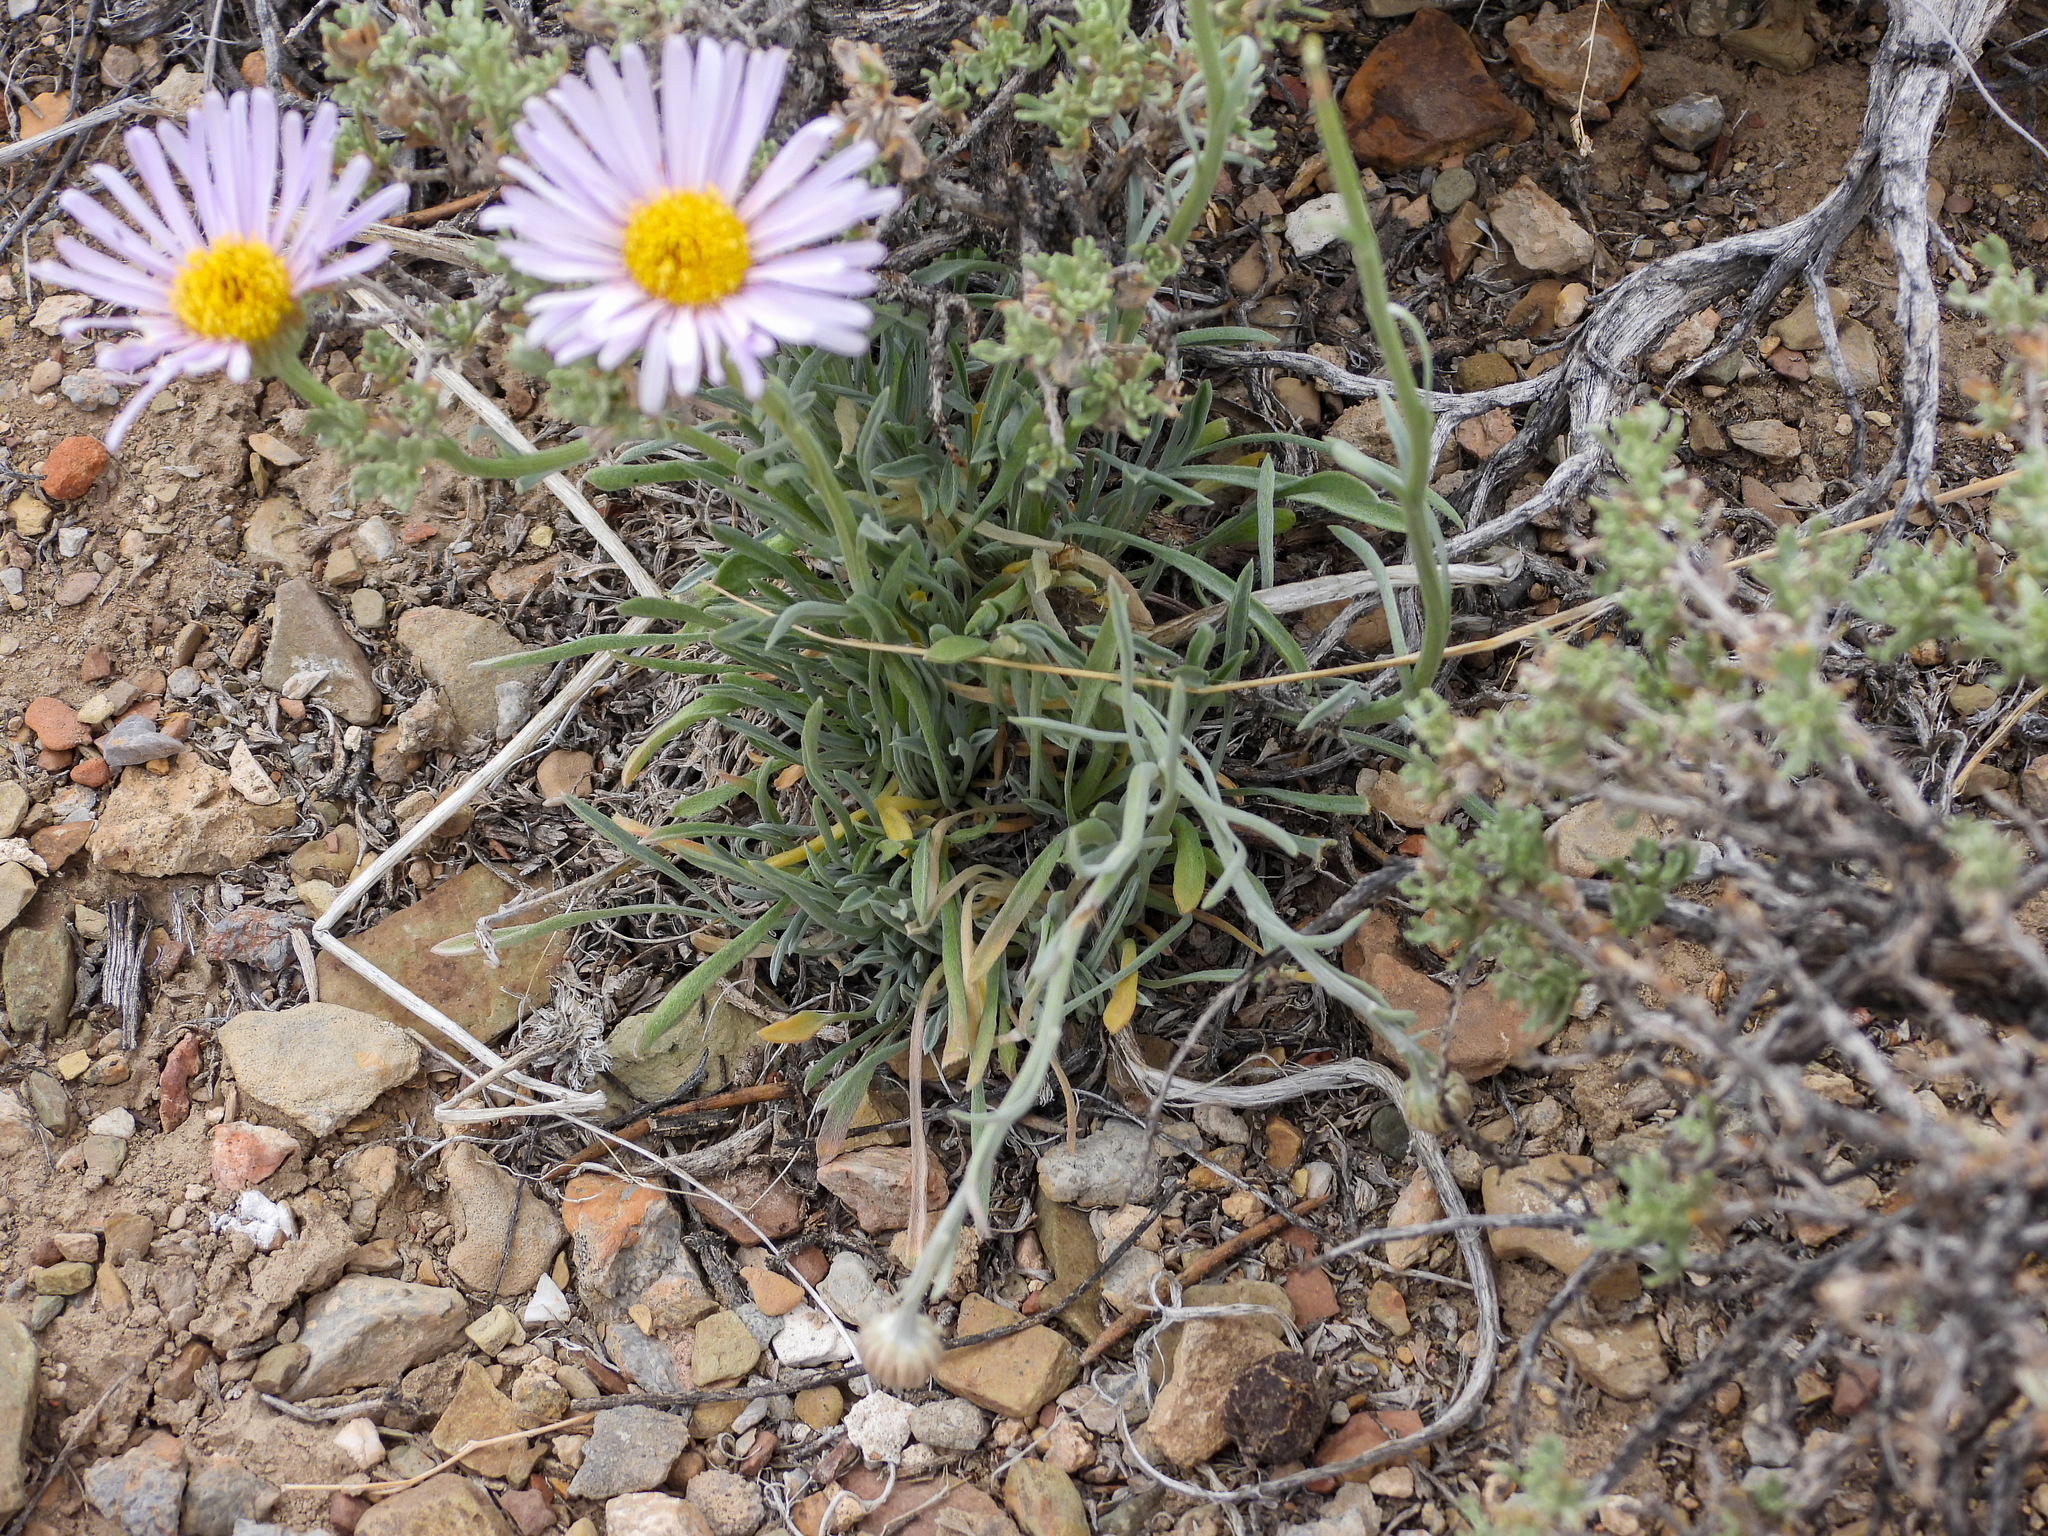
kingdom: Plantae
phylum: Tracheophyta
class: Magnoliopsida
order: Asterales
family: Asteraceae
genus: Erigeron
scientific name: Erigeron argentatus
